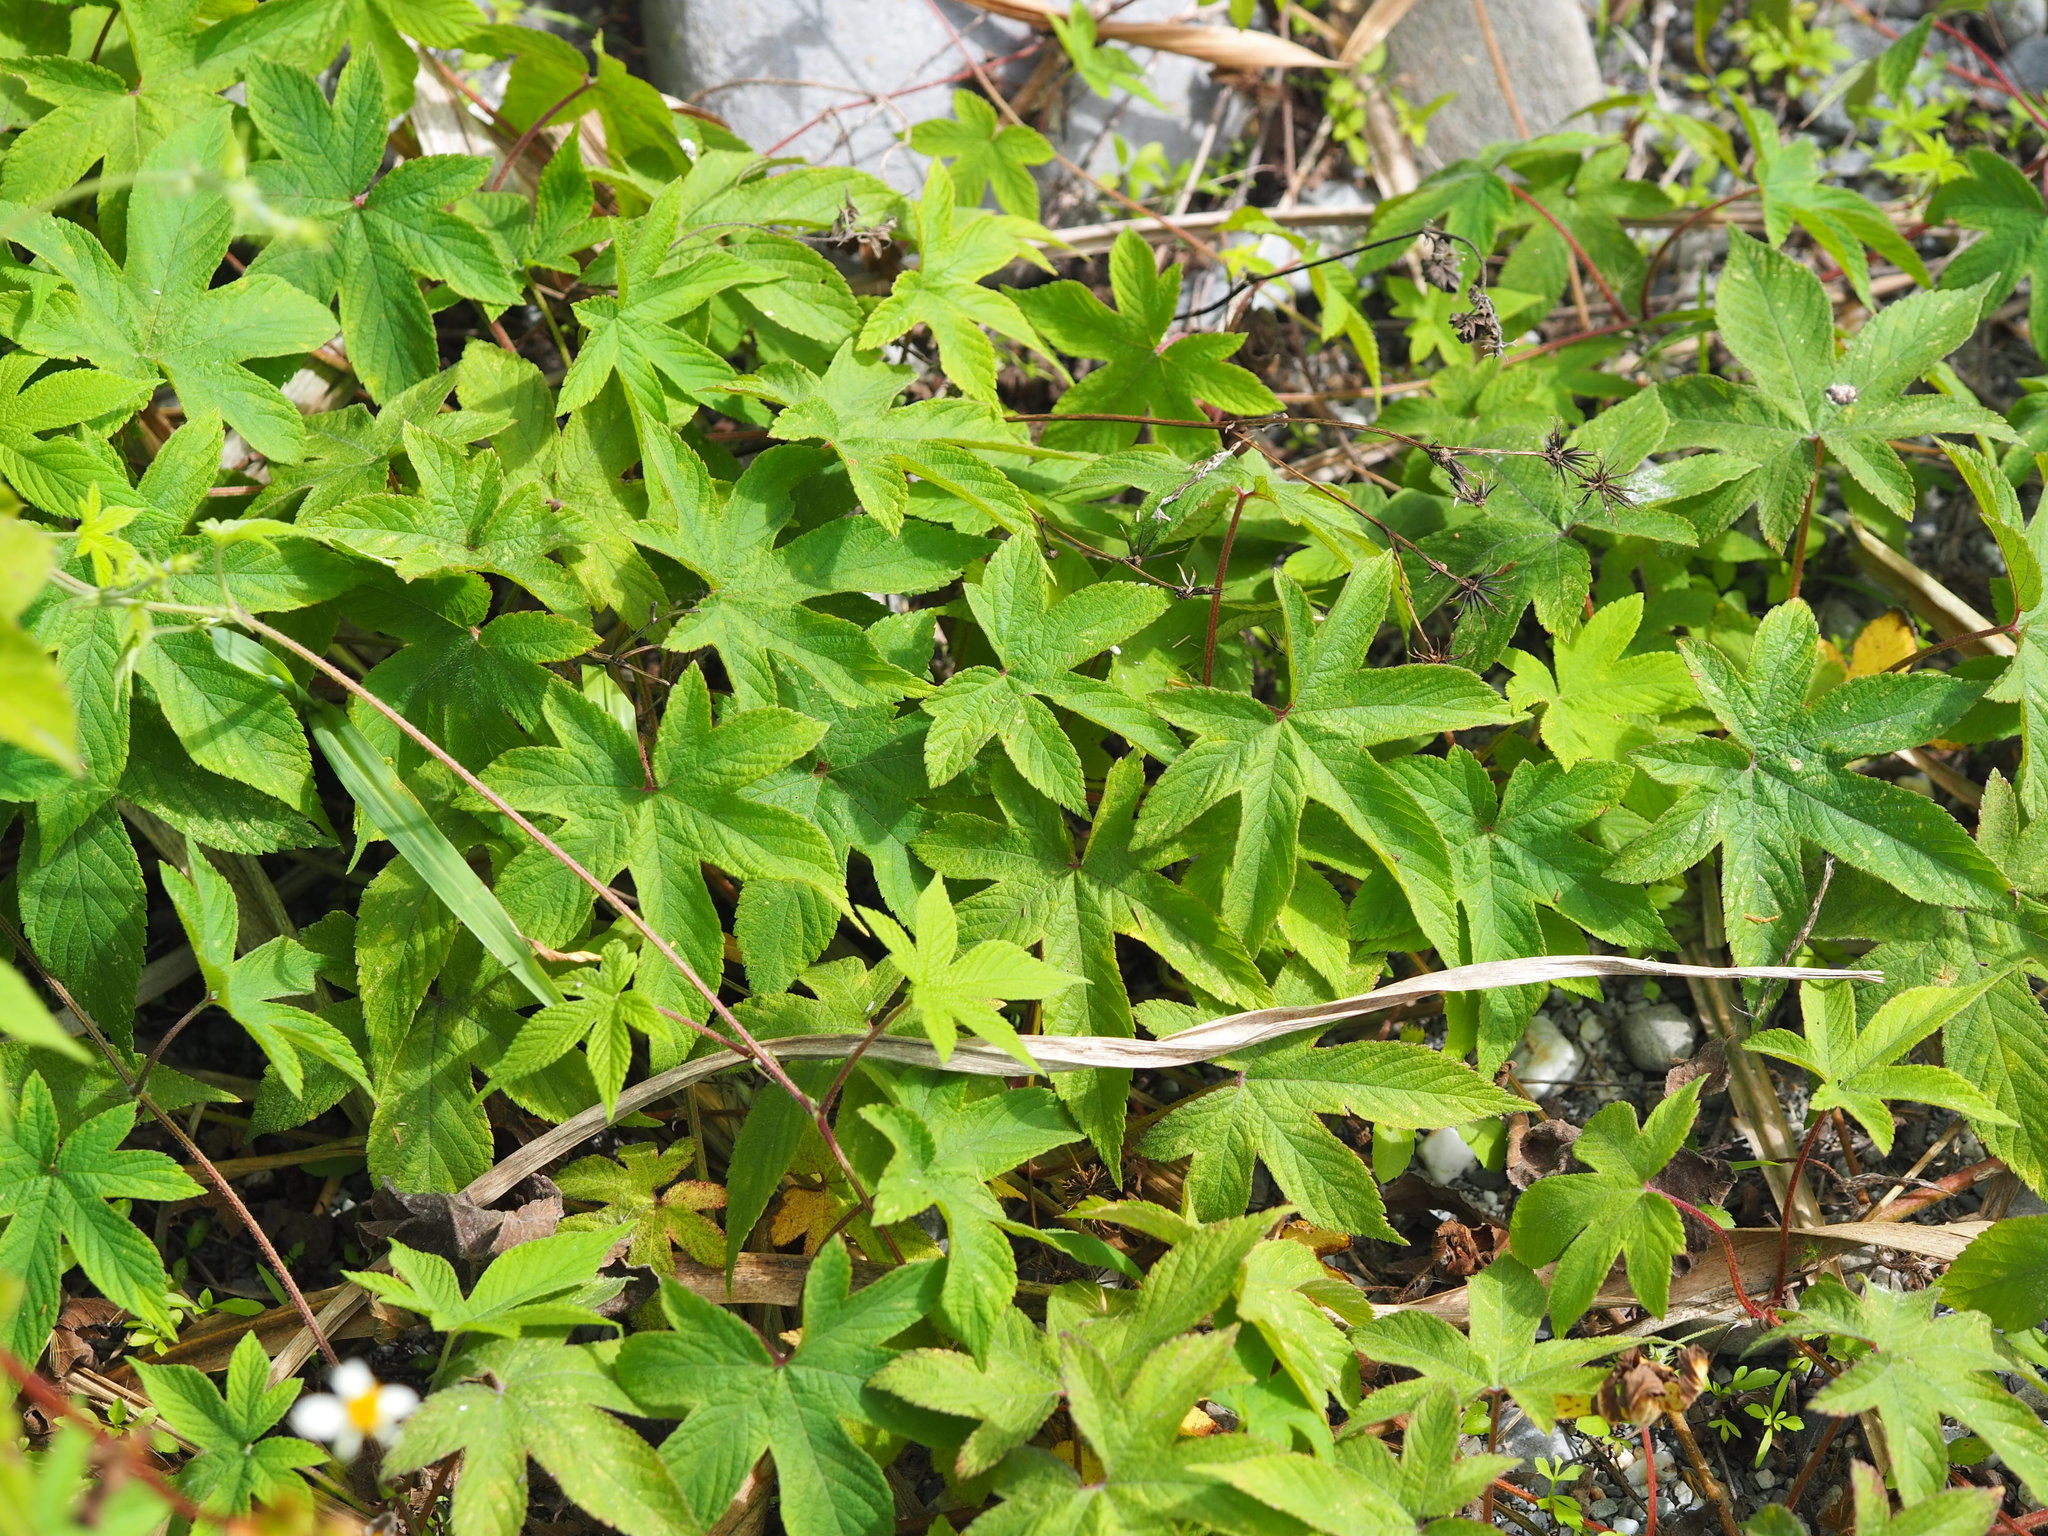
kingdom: Plantae
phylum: Tracheophyta
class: Magnoliopsida
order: Rosales
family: Cannabaceae
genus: Humulus
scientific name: Humulus scandens
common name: Japanese hop
